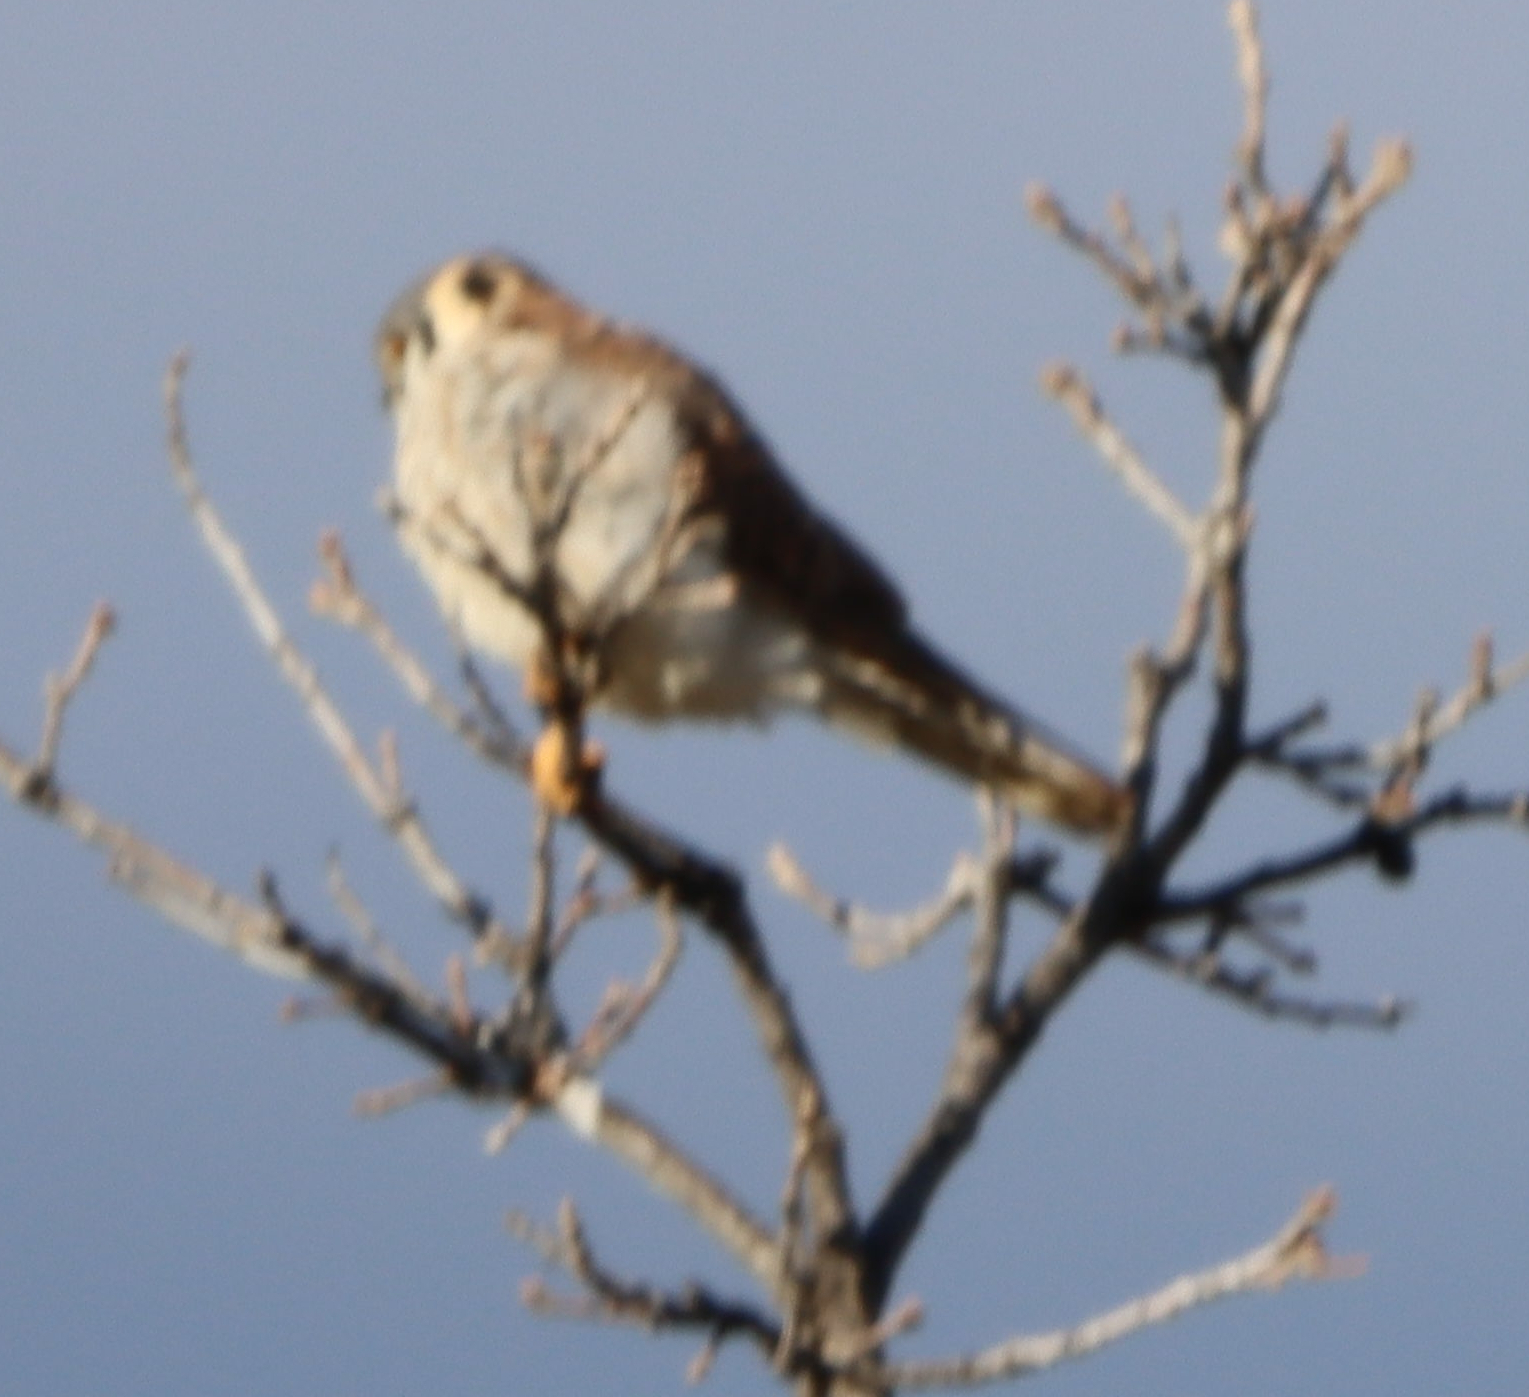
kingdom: Animalia
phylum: Chordata
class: Aves
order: Falconiformes
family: Falconidae
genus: Falco
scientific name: Falco sparverius
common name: American kestrel
